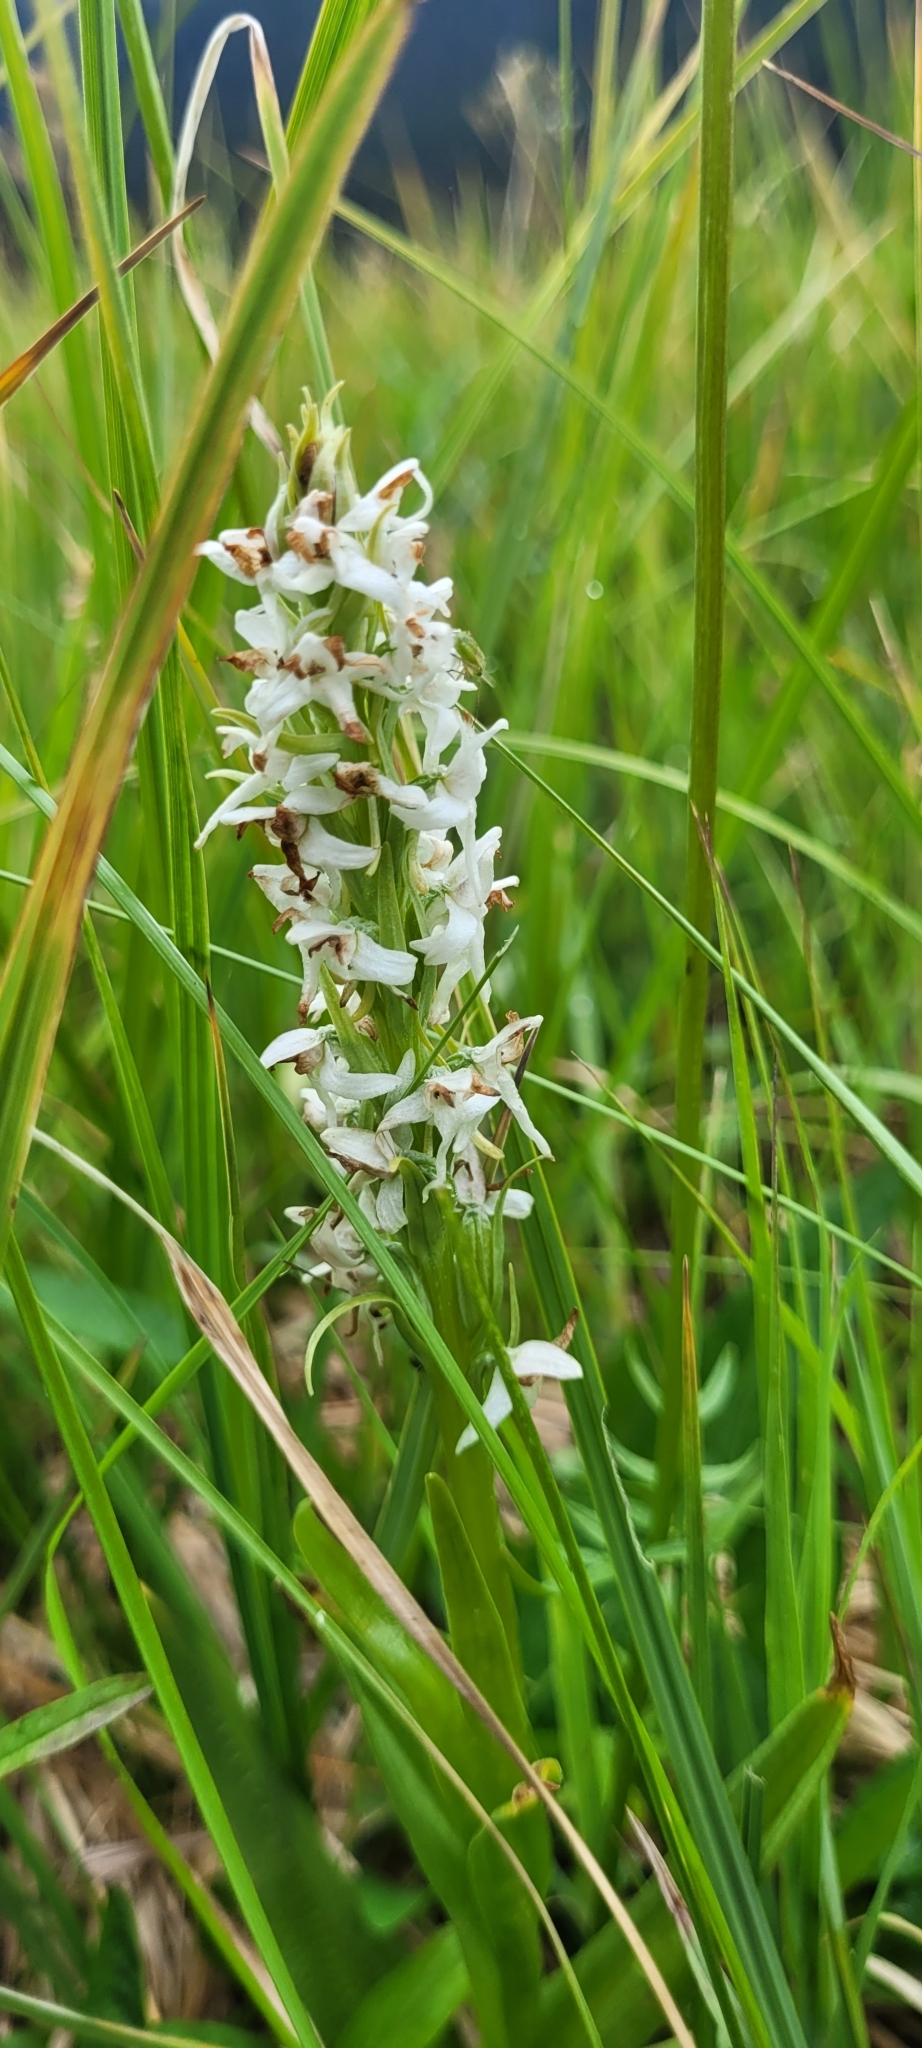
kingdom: Plantae
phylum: Tracheophyta
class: Liliopsida
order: Asparagales
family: Orchidaceae
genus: Platanthera
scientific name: Platanthera dilatata
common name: Bog candles
